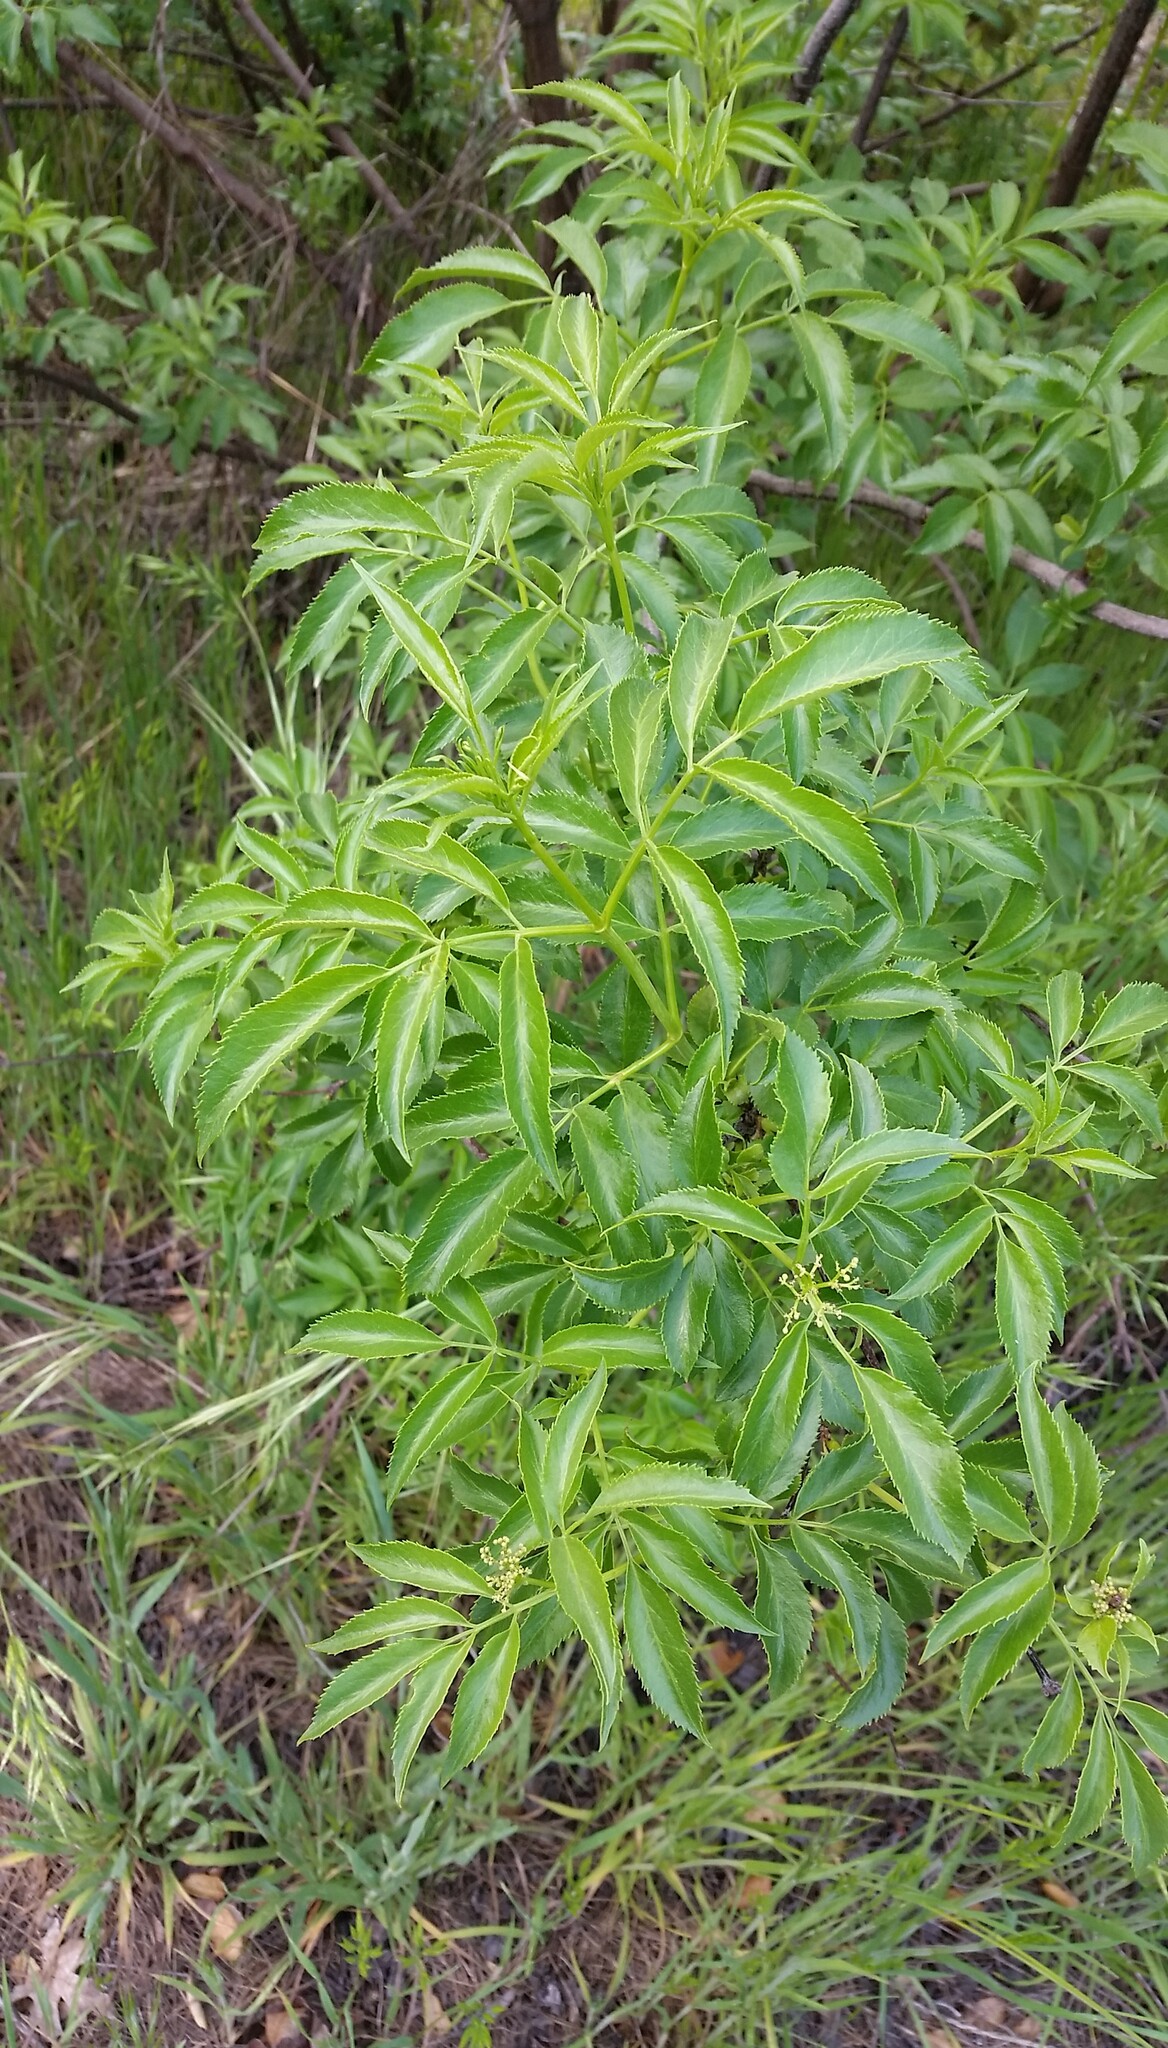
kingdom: Plantae
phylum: Tracheophyta
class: Magnoliopsida
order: Dipsacales
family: Viburnaceae
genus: Sambucus
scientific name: Sambucus cerulea
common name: Blue elder
